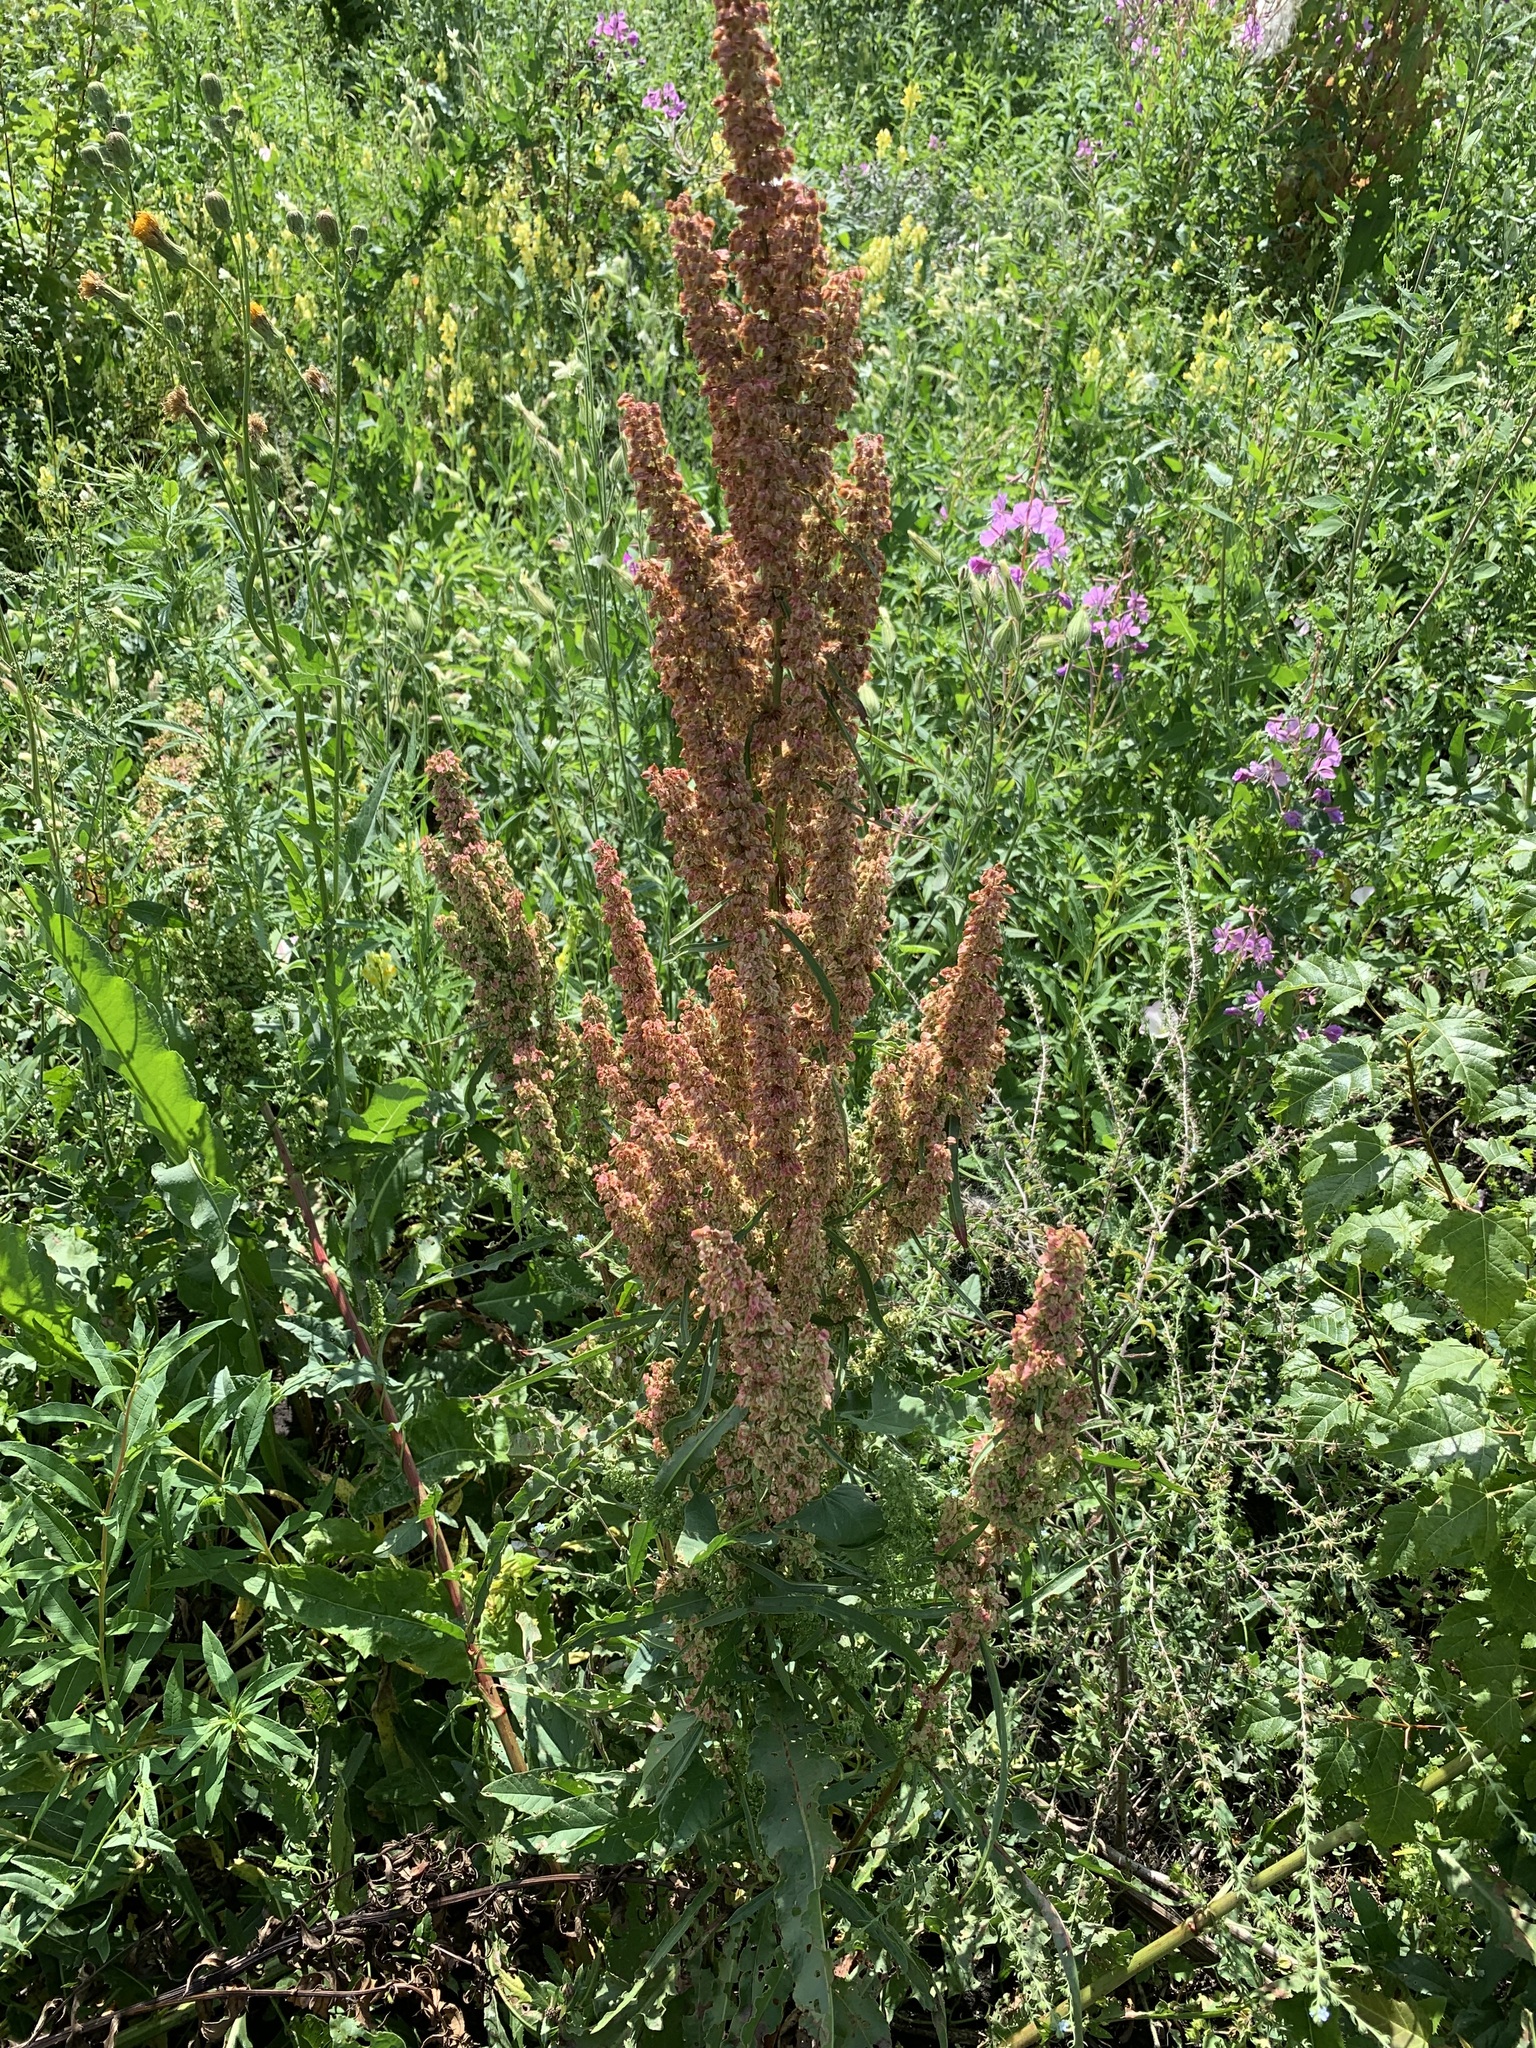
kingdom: Plantae
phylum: Tracheophyta
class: Magnoliopsida
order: Caryophyllales
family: Polygonaceae
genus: Rumex
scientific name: Rumex crispus
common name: Curled dock
